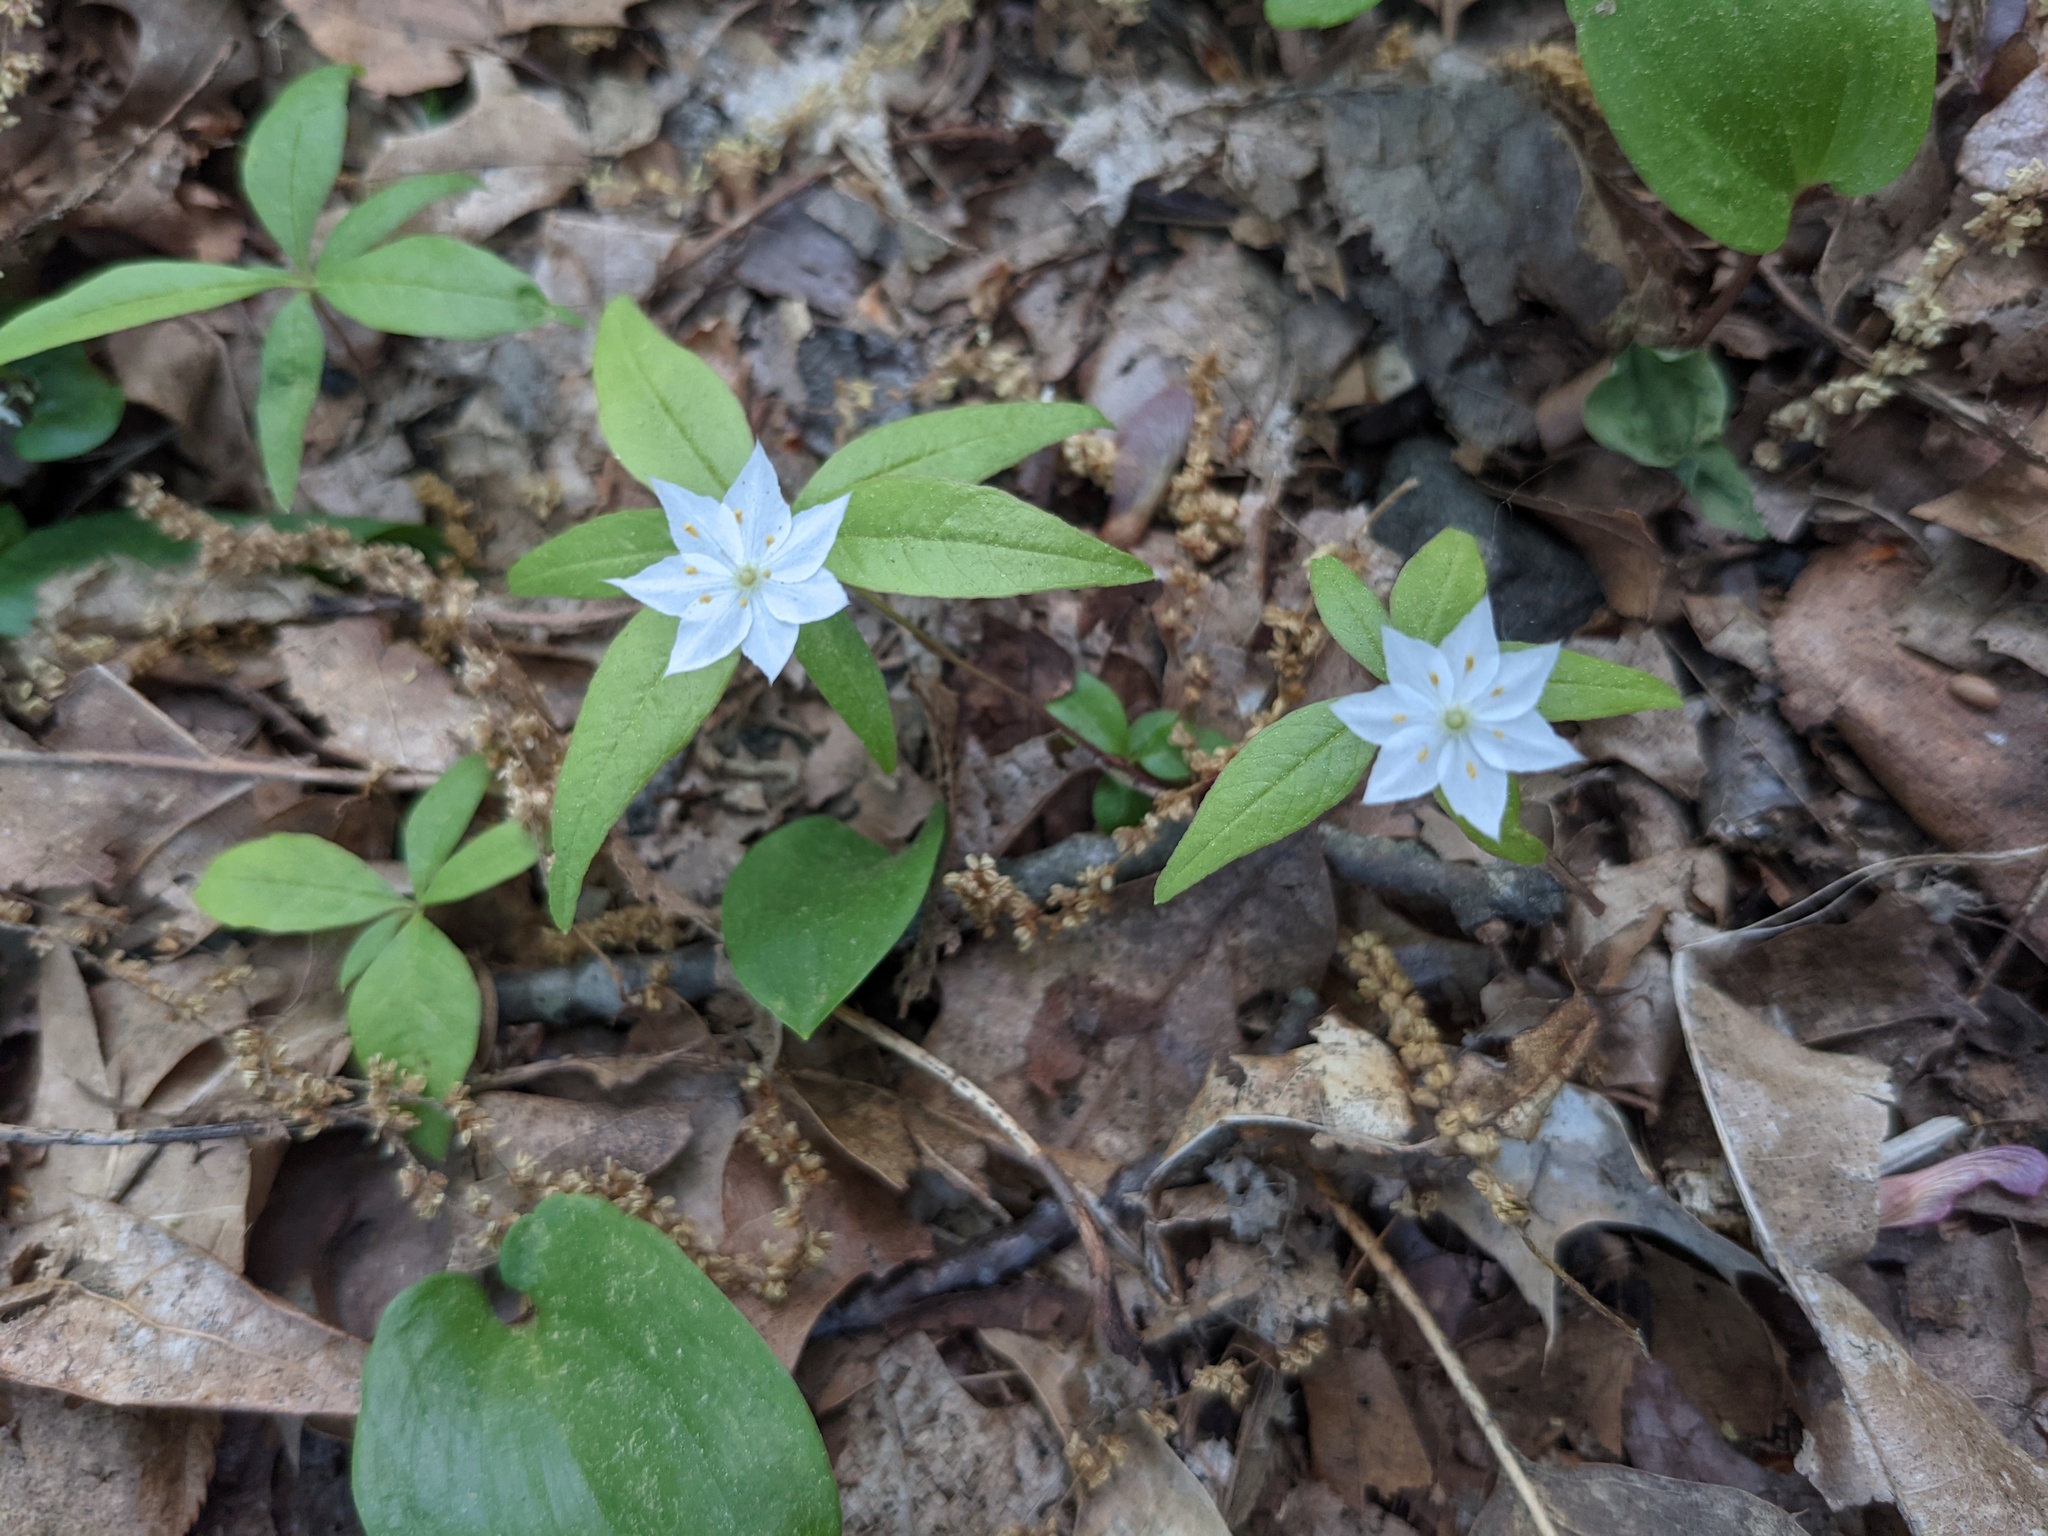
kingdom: Plantae
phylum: Tracheophyta
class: Magnoliopsida
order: Ericales
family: Primulaceae
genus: Lysimachia
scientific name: Lysimachia borealis
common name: American starflower
